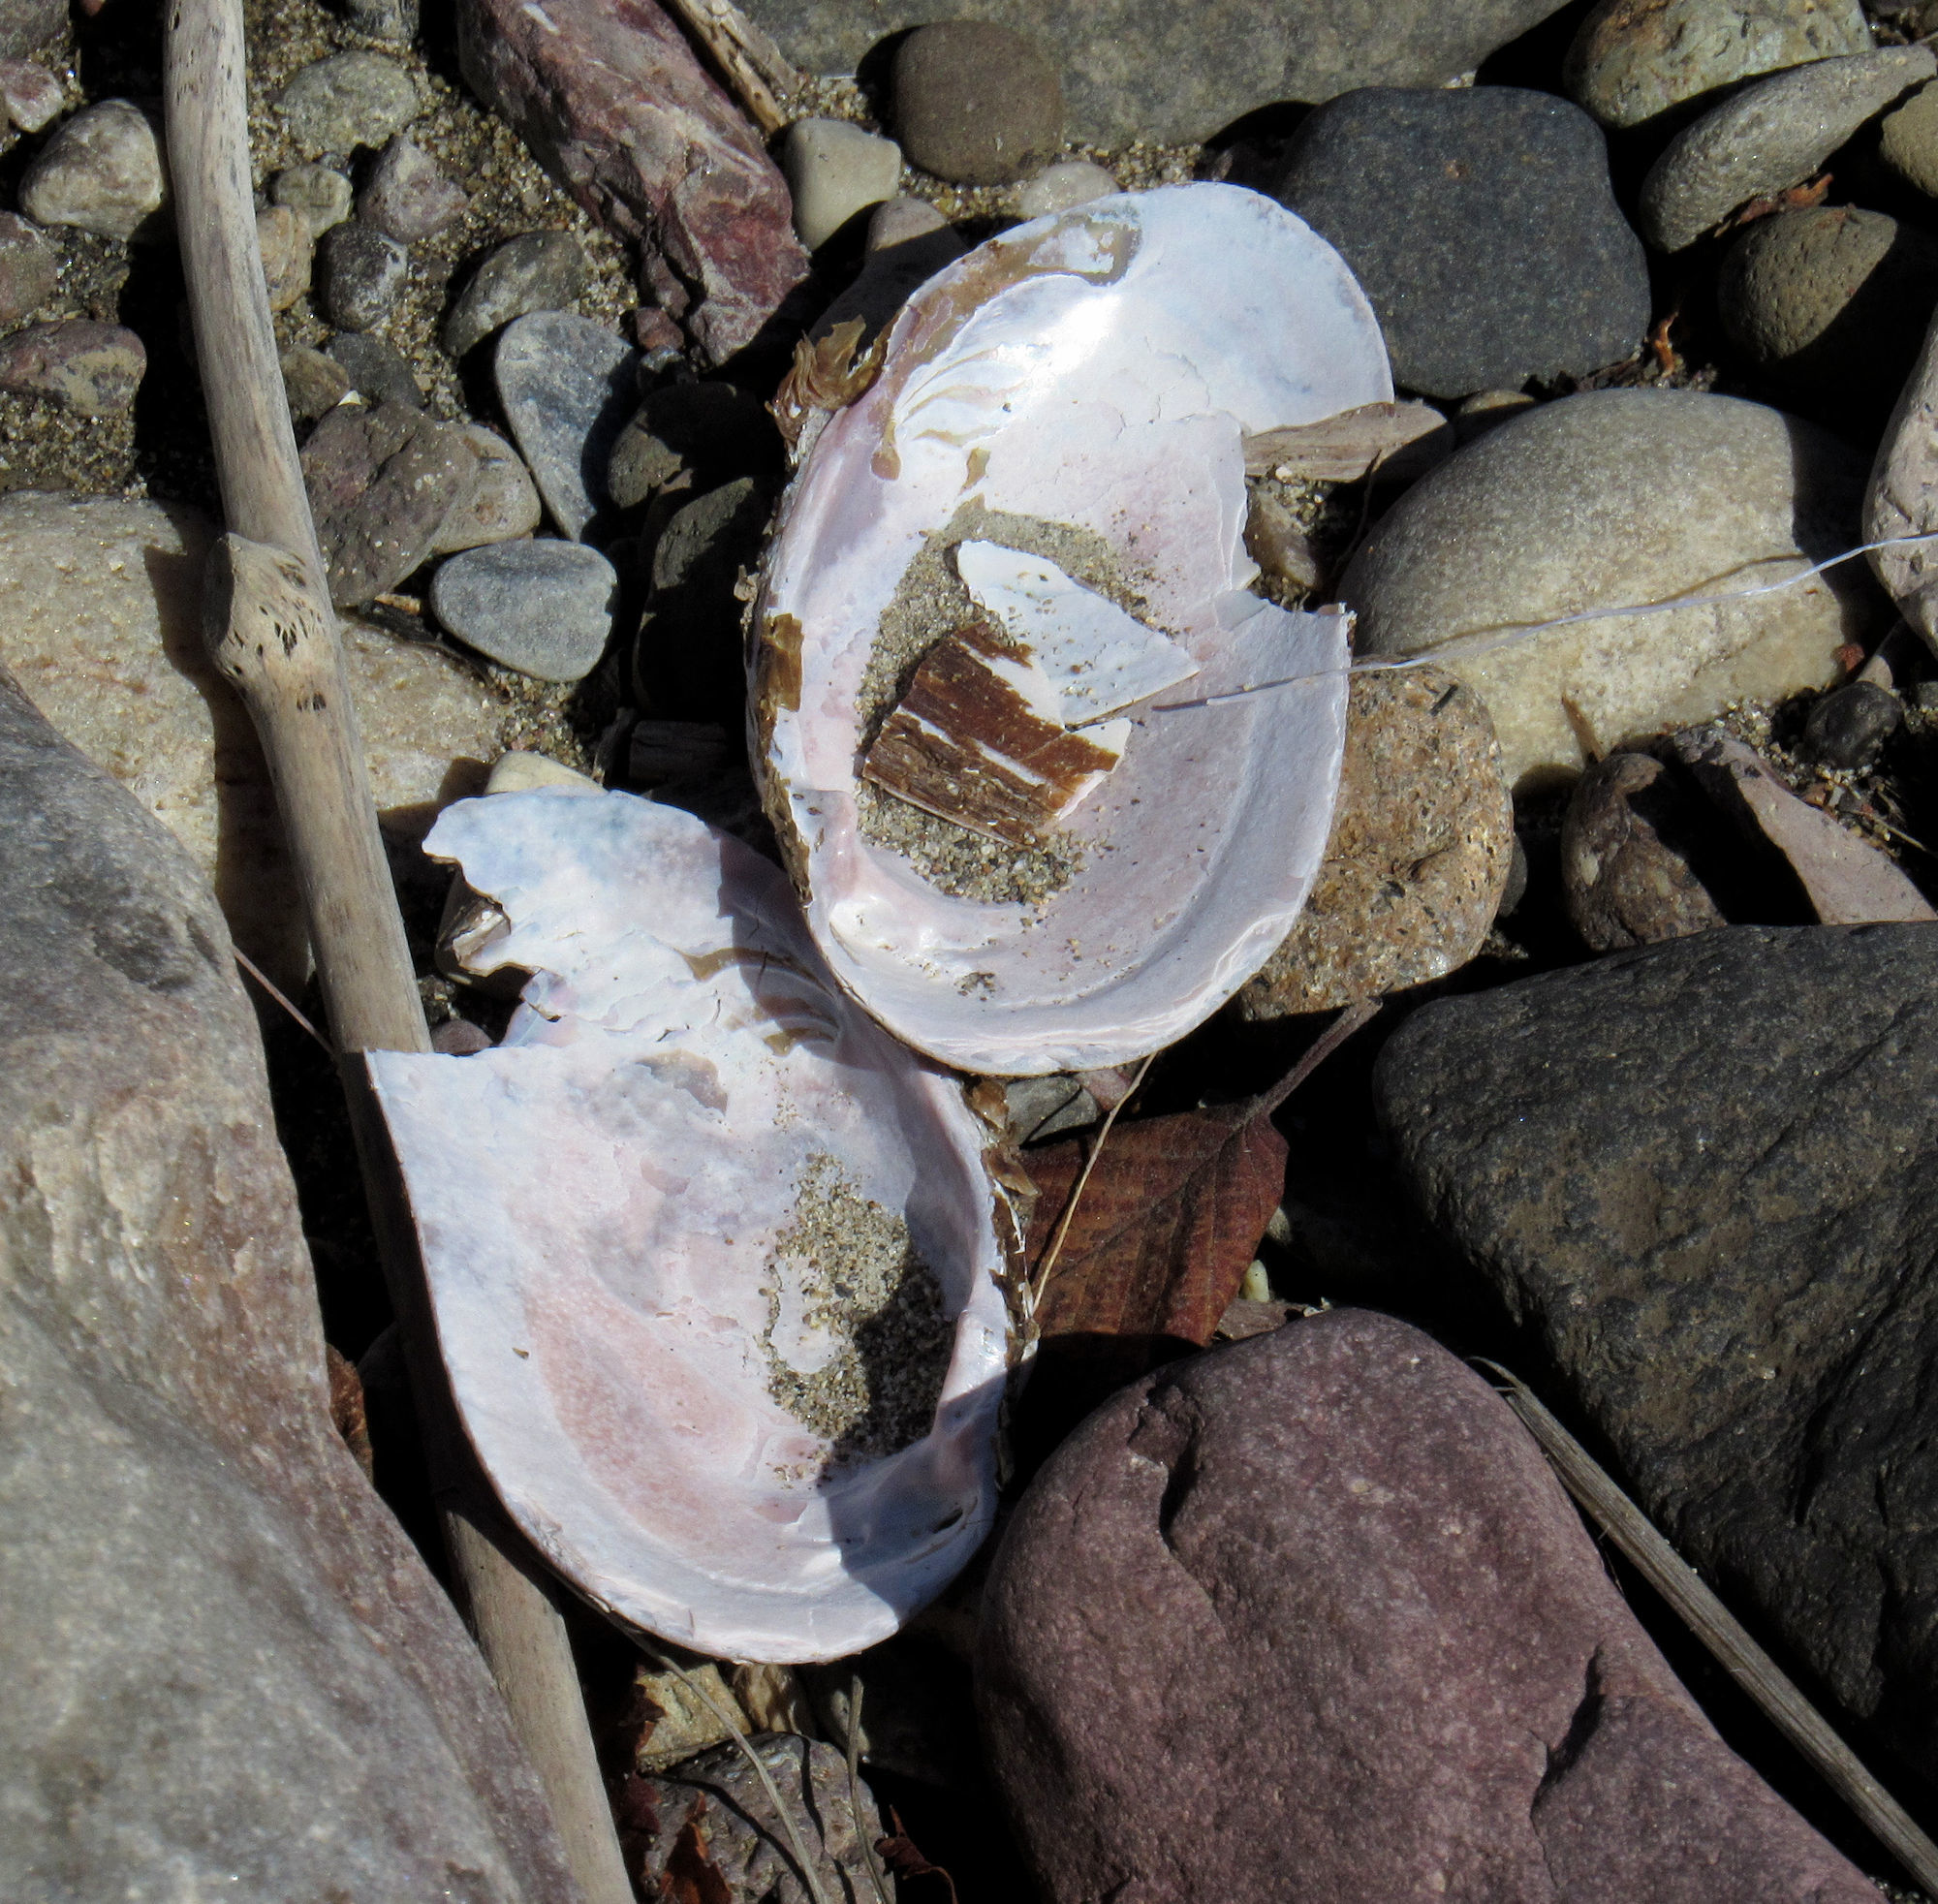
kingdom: Animalia
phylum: Mollusca
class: Bivalvia
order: Unionida
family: Margaritiferidae
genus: Margaritifera
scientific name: Margaritifera falcata
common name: Western pearlshell
